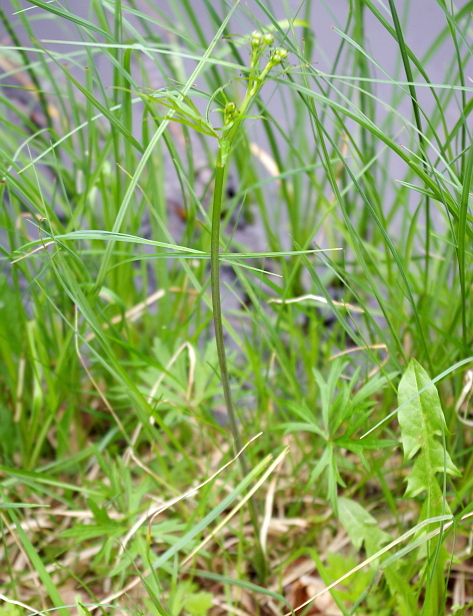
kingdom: Plantae
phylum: Tracheophyta
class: Magnoliopsida
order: Ranunculales
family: Ranunculaceae
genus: Ranunculus
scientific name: Ranunculus acris
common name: Meadow buttercup
